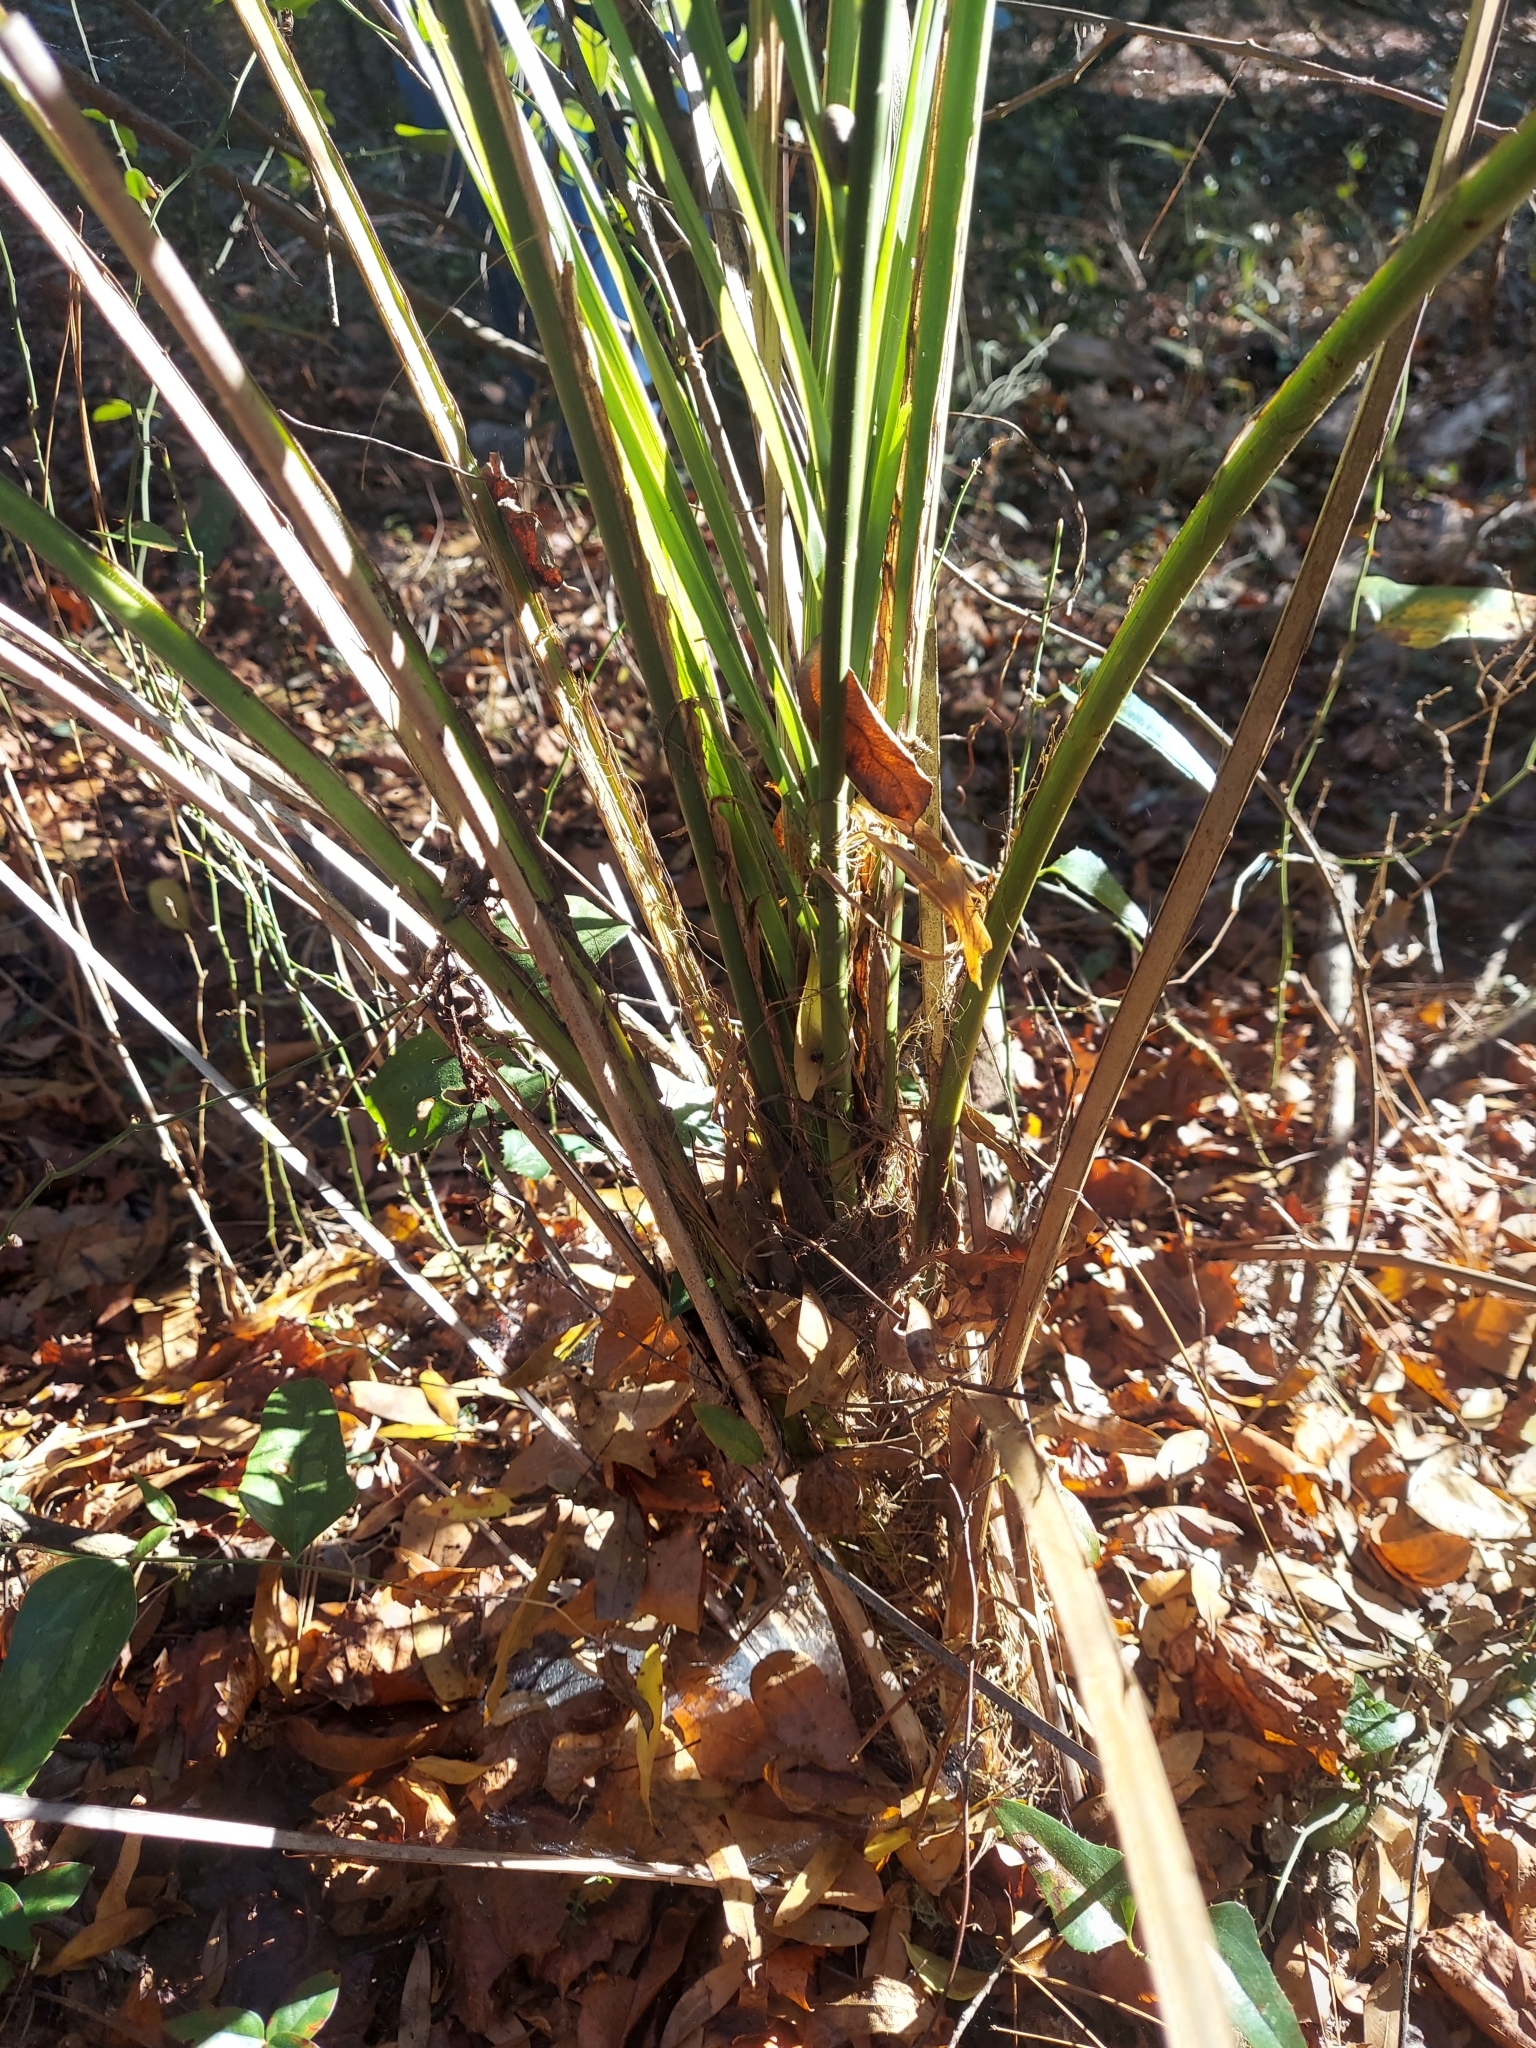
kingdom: Plantae
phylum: Tracheophyta
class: Liliopsida
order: Arecales
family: Arecaceae
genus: Butia
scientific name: Butia capitata
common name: South american jelly palm
